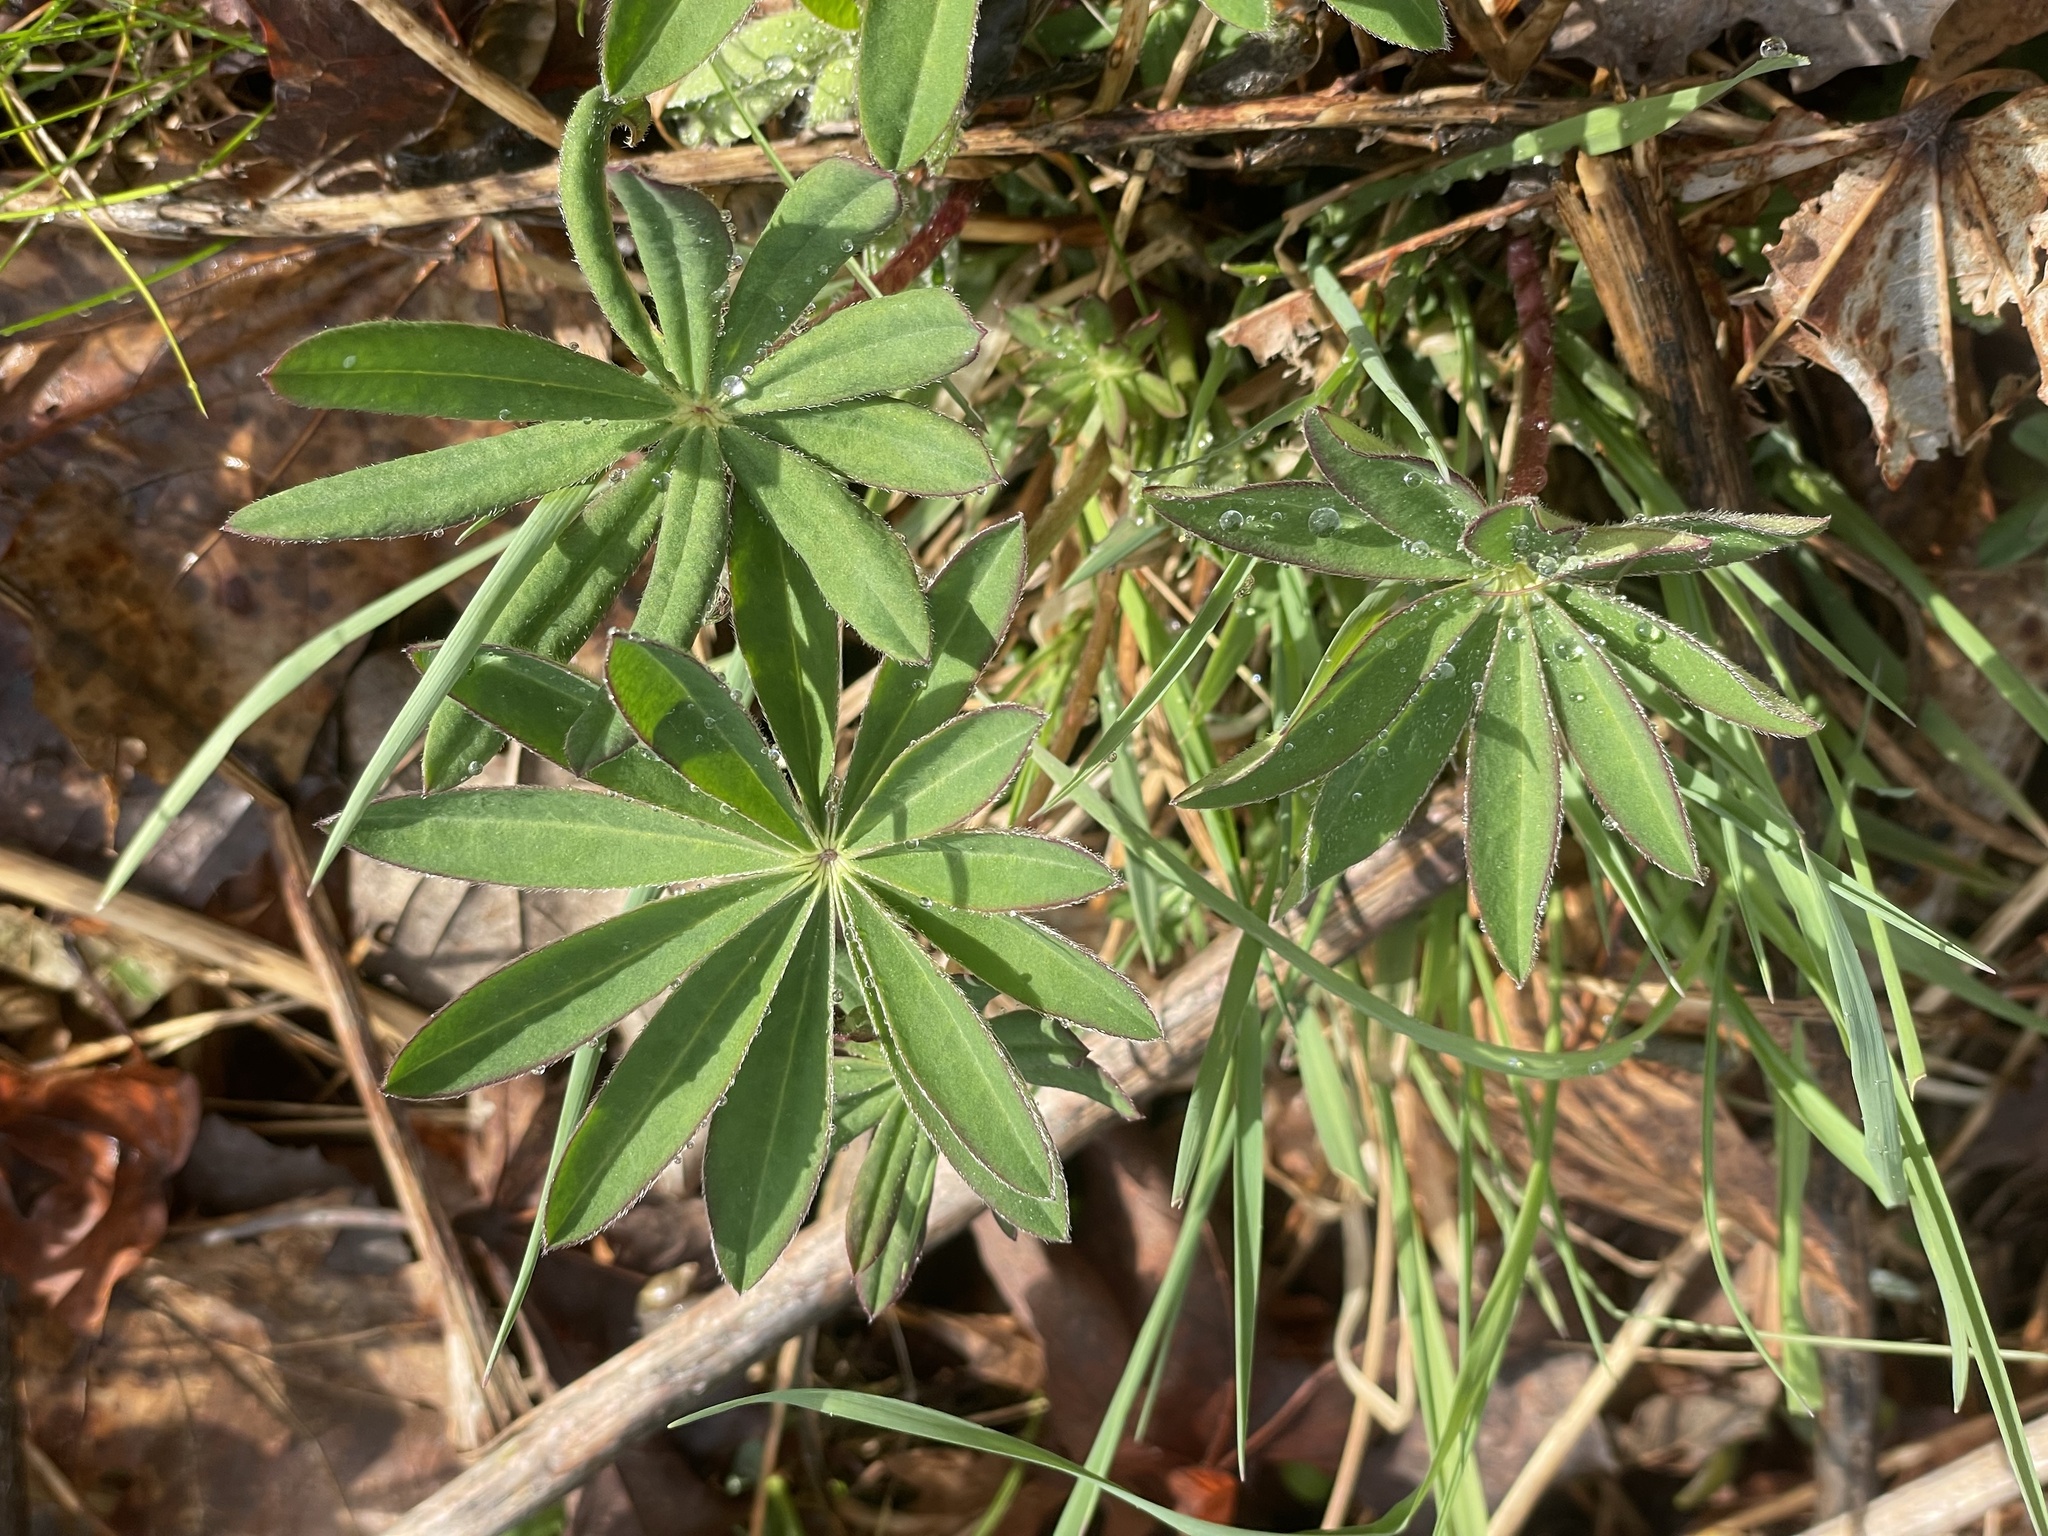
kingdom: Plantae
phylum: Tracheophyta
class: Magnoliopsida
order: Fabales
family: Fabaceae
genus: Lupinus
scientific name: Lupinus polyphyllus
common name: Garden lupin
